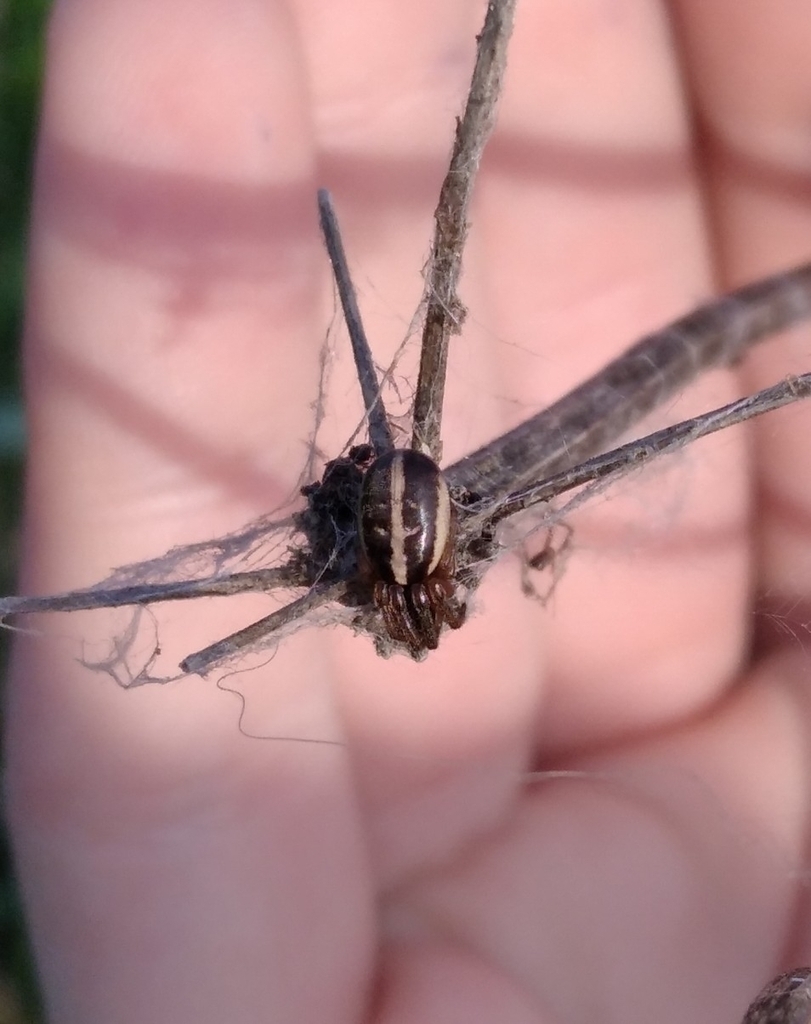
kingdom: Animalia
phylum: Arthropoda
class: Arachnida
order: Araneae
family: Araneidae
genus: Singa
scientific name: Singa nitidula
